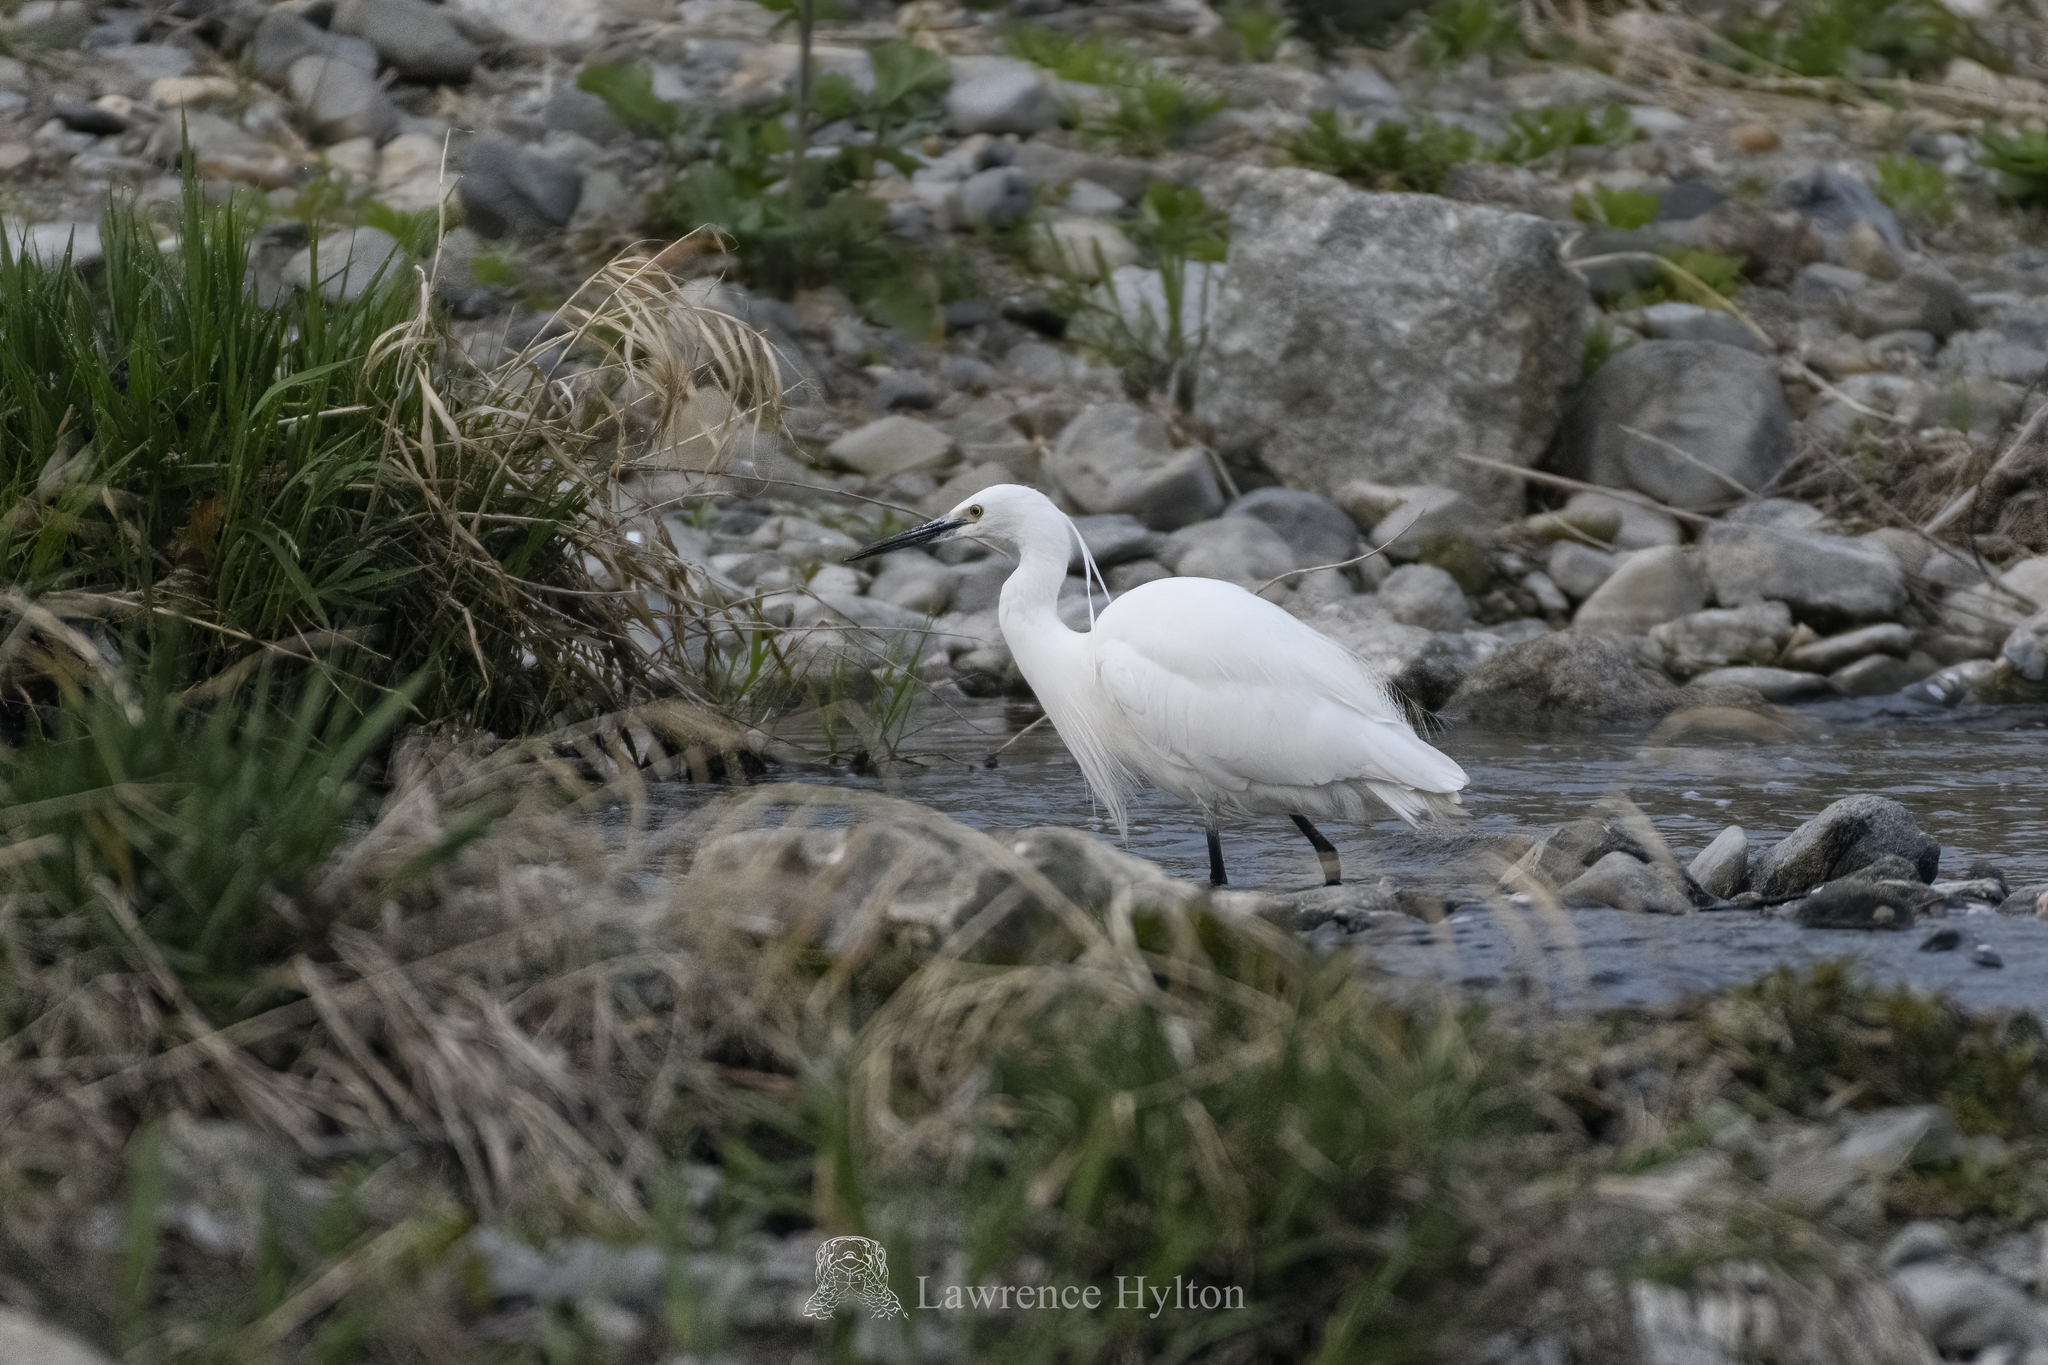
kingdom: Animalia
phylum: Chordata
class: Aves
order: Pelecaniformes
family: Ardeidae
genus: Egretta
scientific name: Egretta garzetta
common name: Little egret
